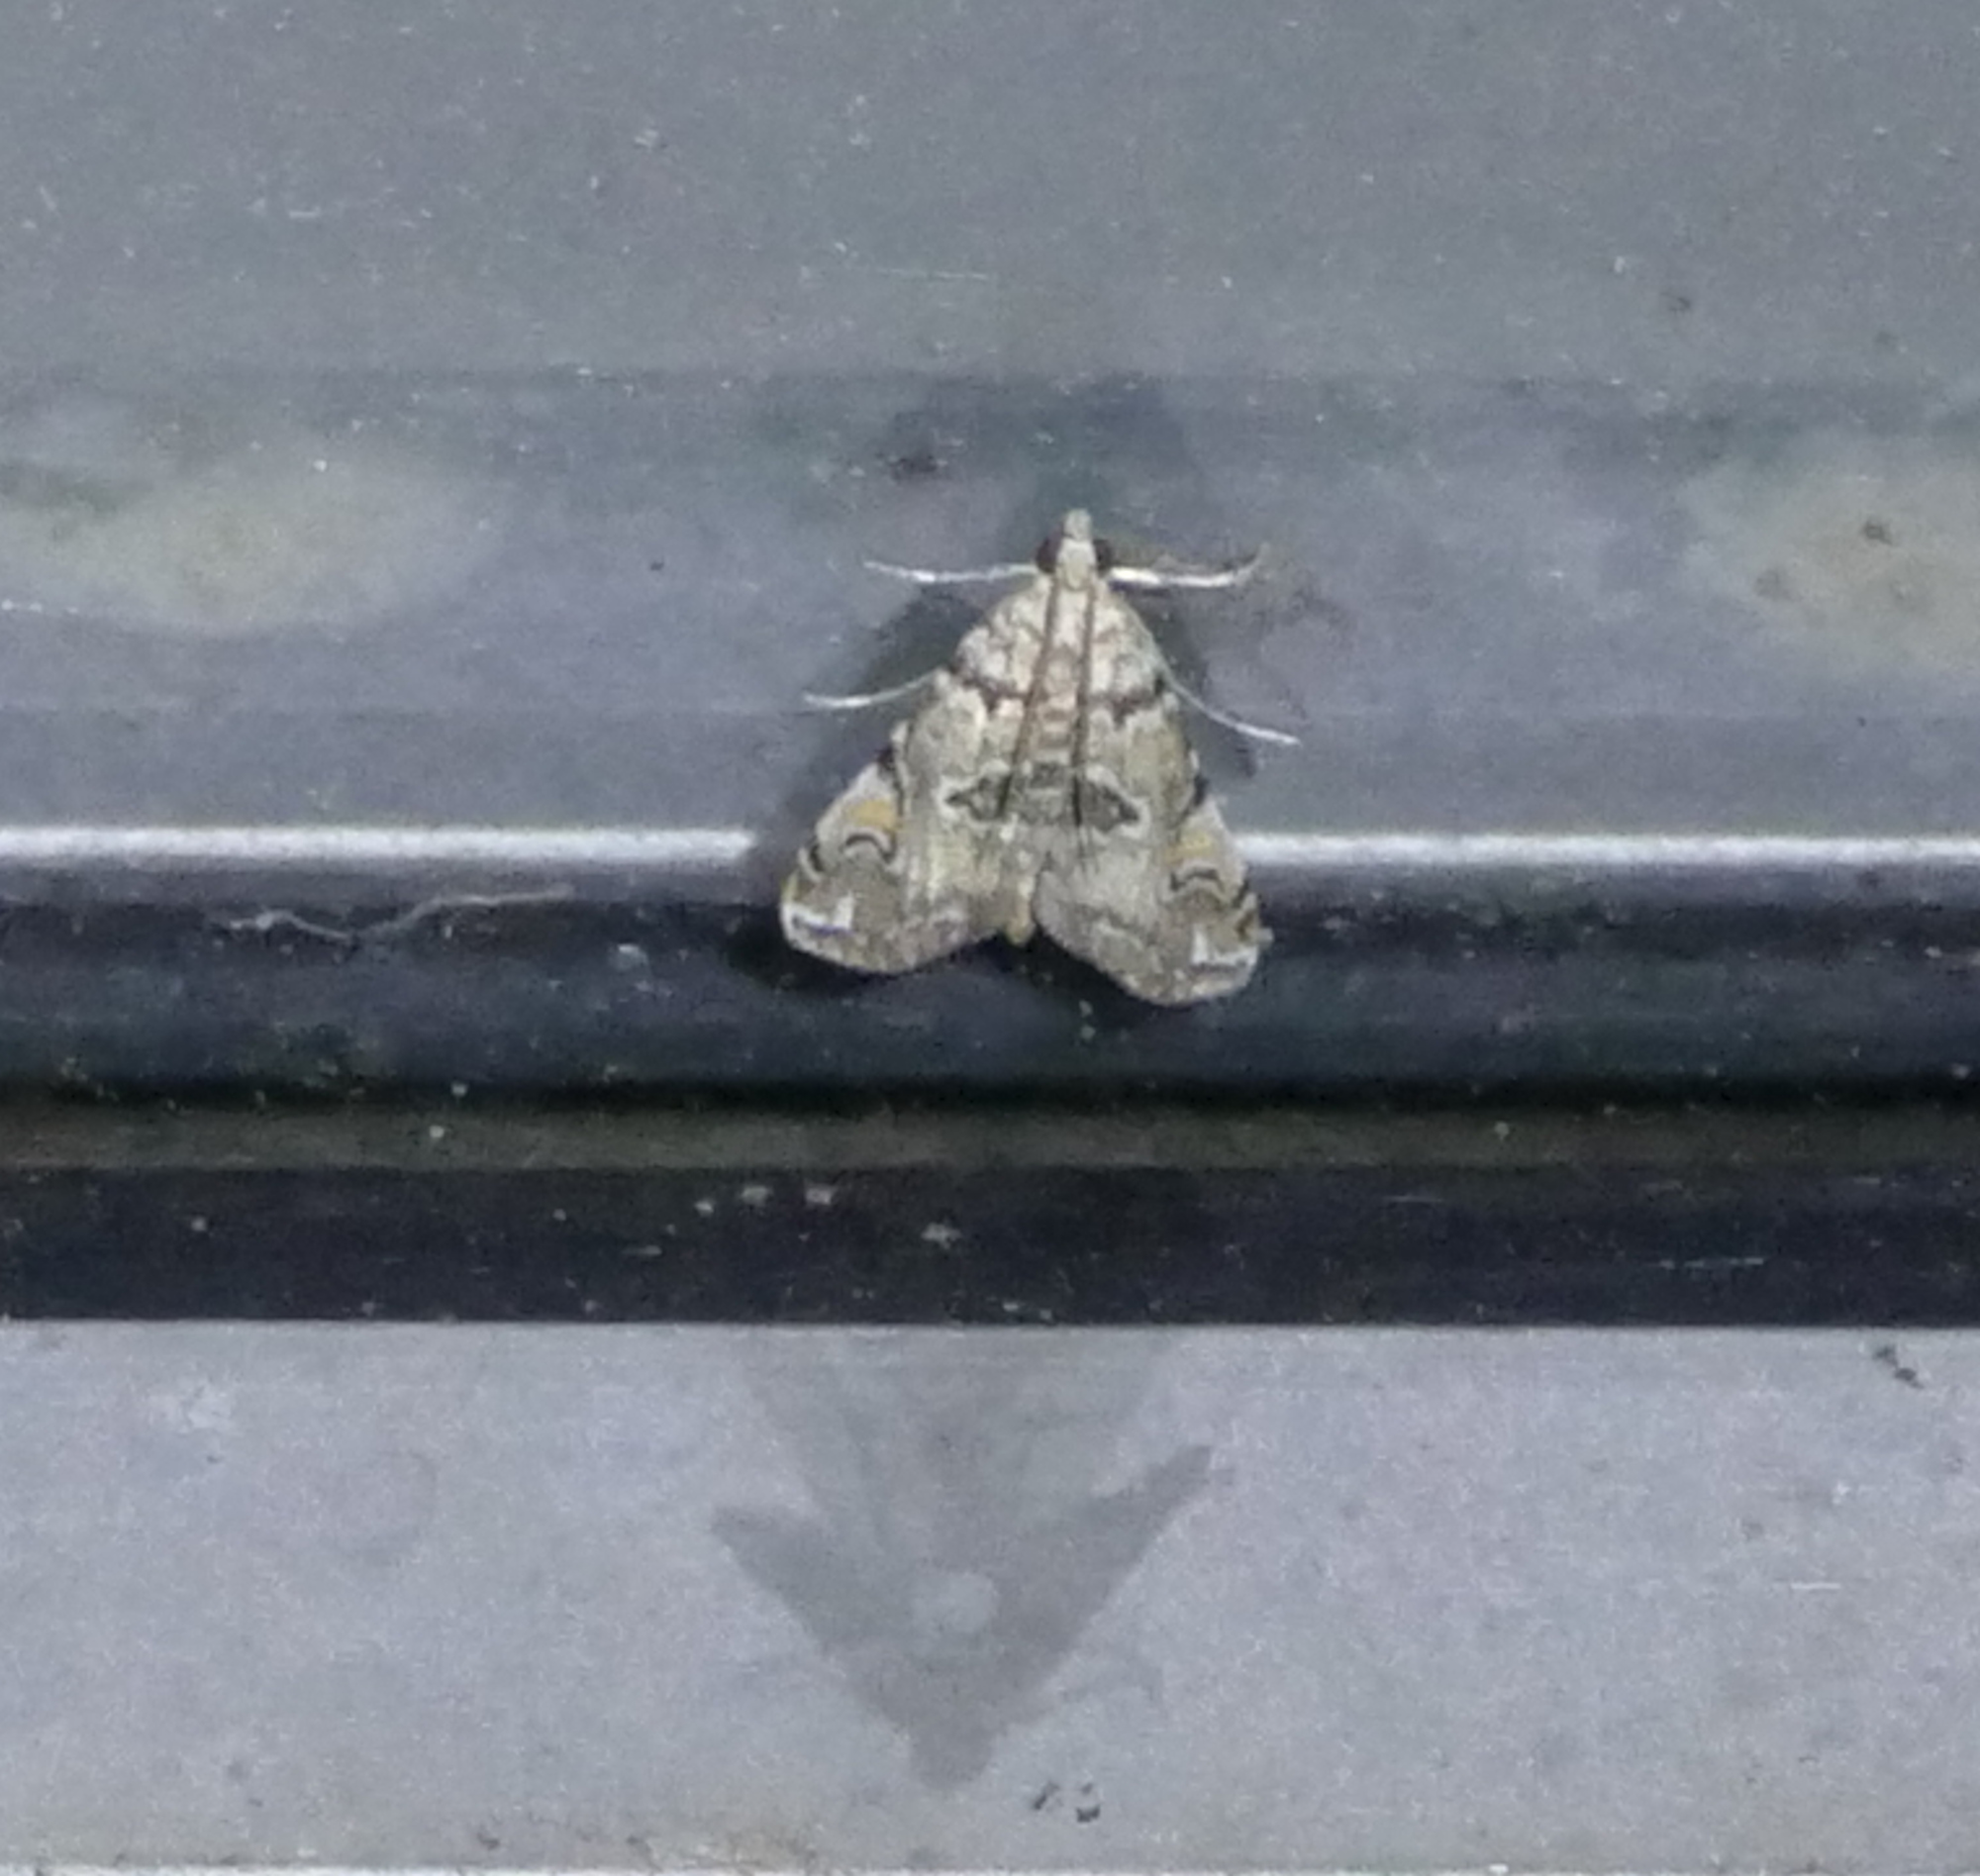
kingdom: Animalia
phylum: Arthropoda
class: Insecta
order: Lepidoptera
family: Crambidae
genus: Elophila
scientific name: Elophila gyralis
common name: Waterlily borer moth
